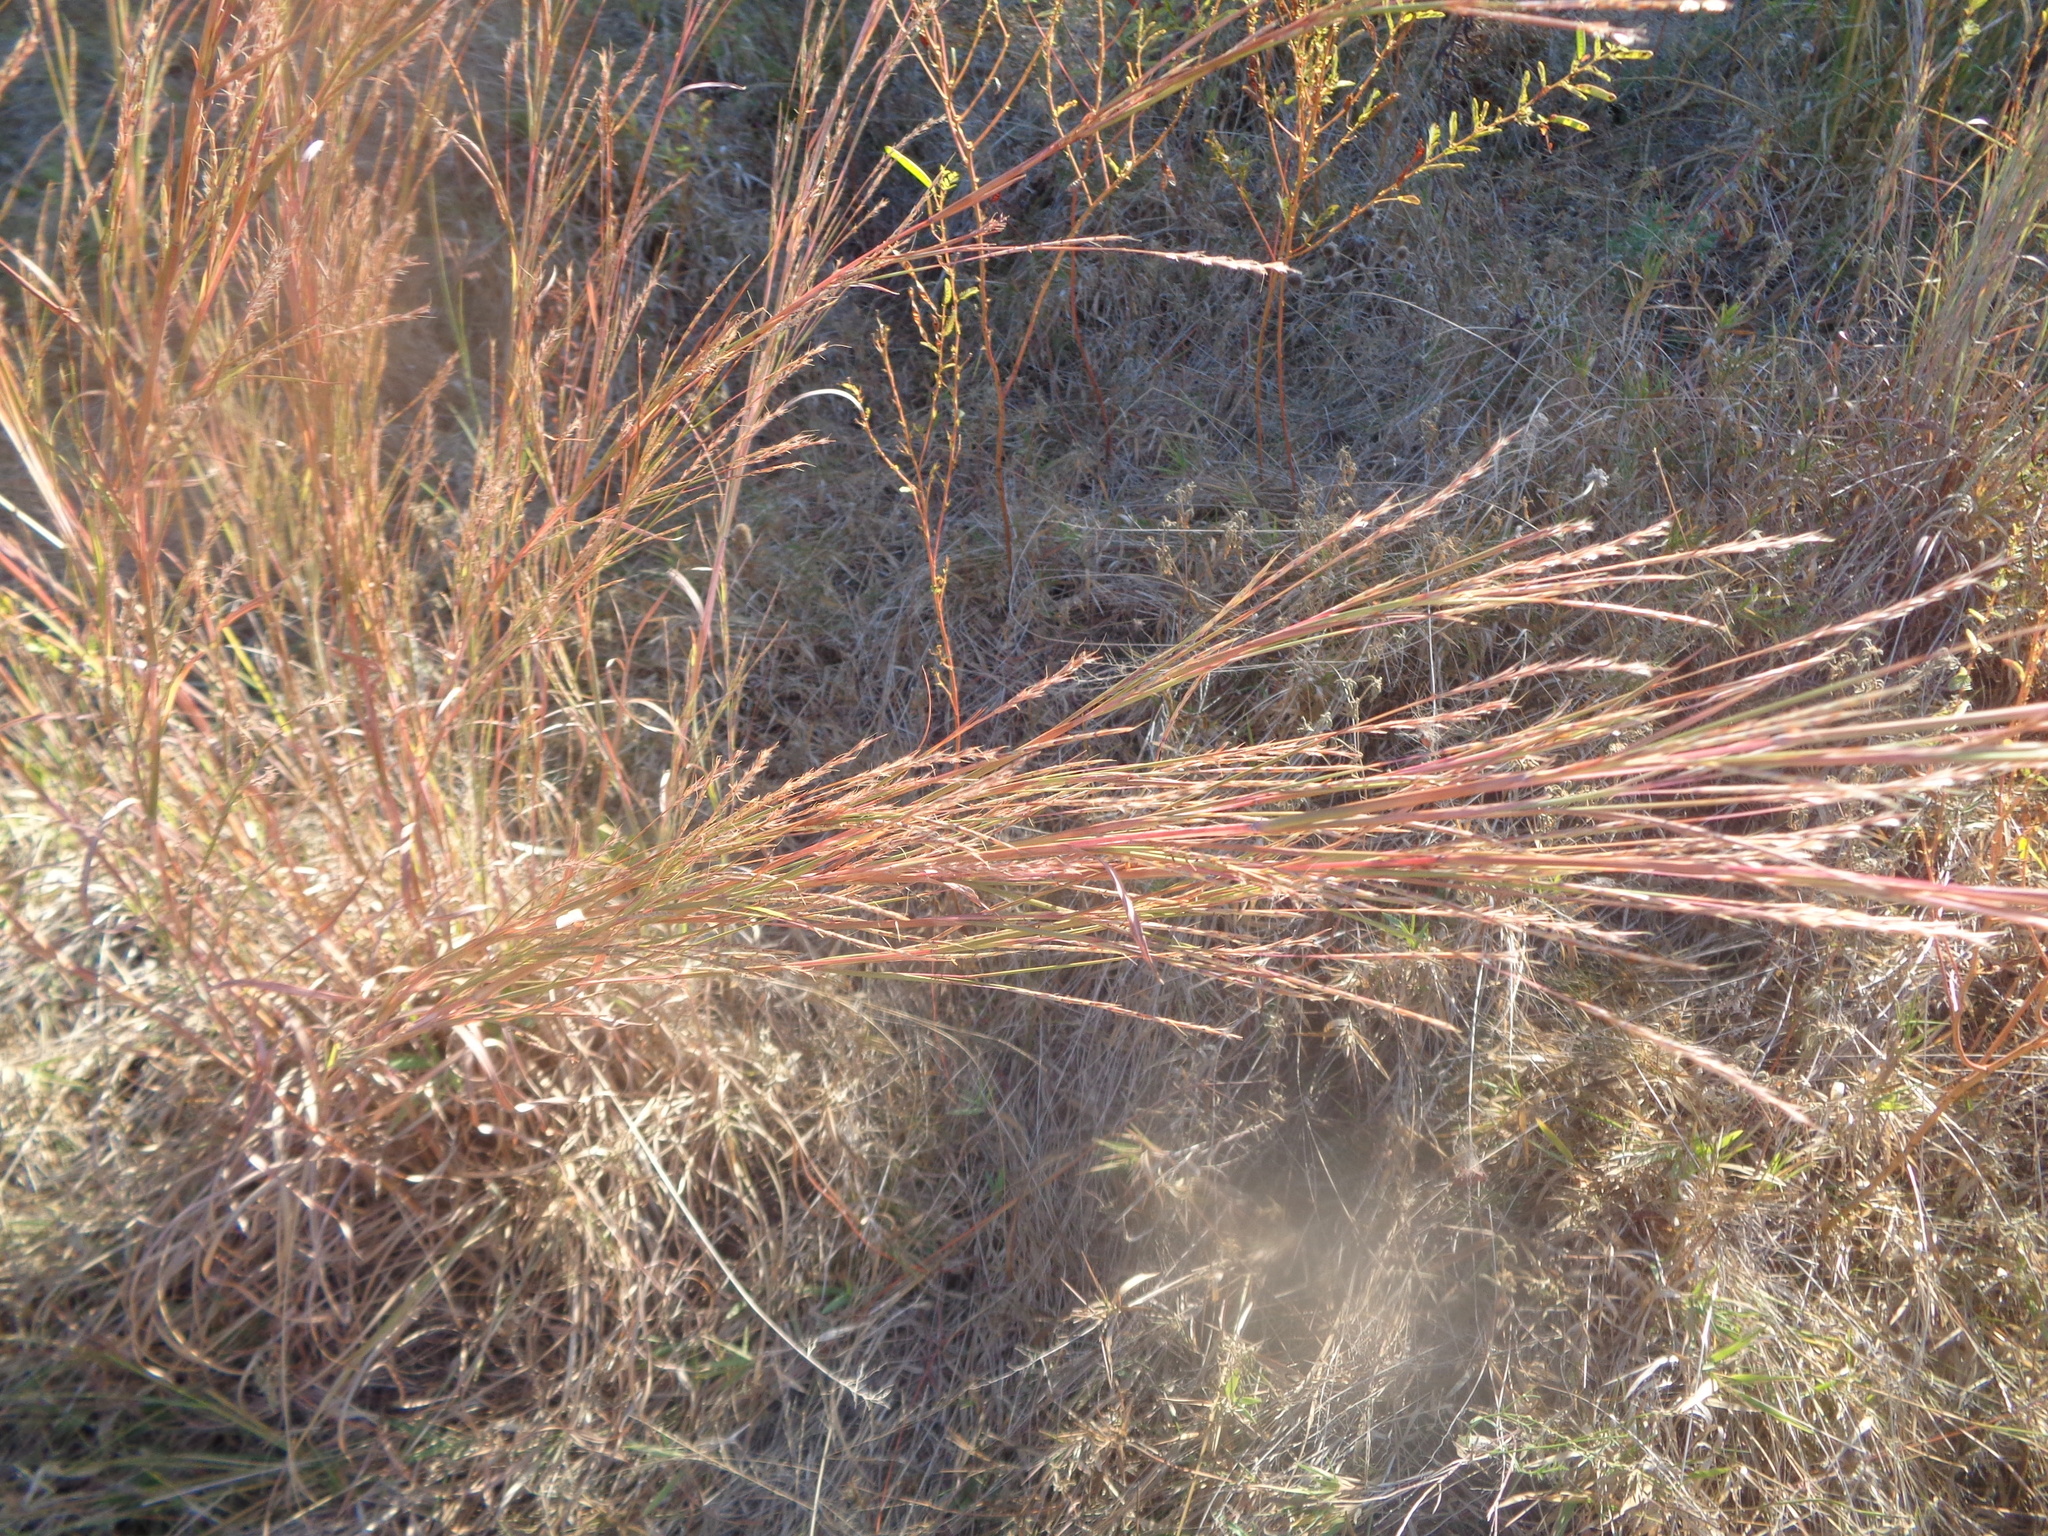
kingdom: Plantae
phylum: Tracheophyta
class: Liliopsida
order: Poales
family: Poaceae
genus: Schizachyrium
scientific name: Schizachyrium scoparium
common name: Little bluestem
